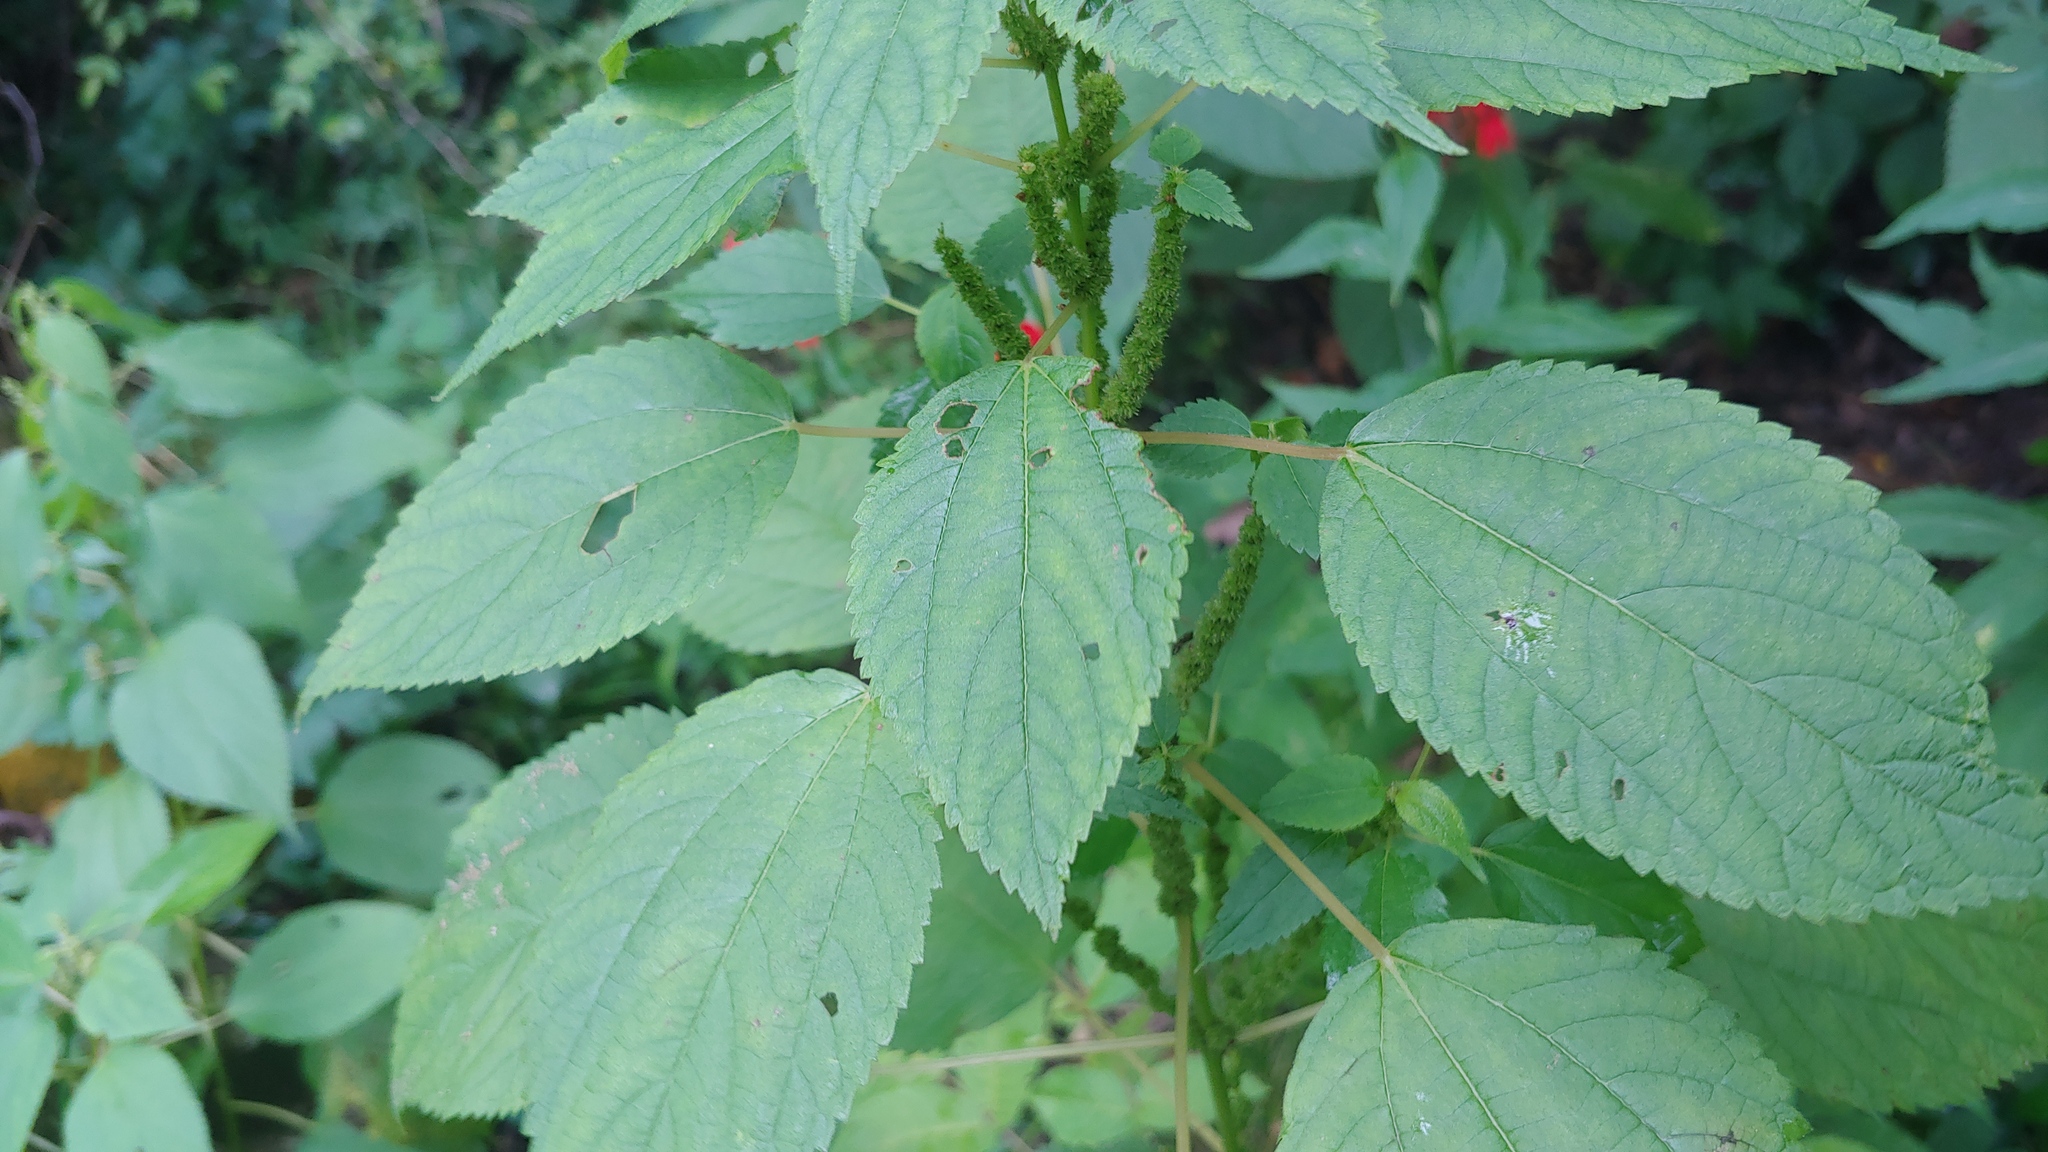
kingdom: Plantae
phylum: Tracheophyta
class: Magnoliopsida
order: Rosales
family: Urticaceae
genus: Boehmeria
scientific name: Boehmeria cylindrica
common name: Bog-hemp
